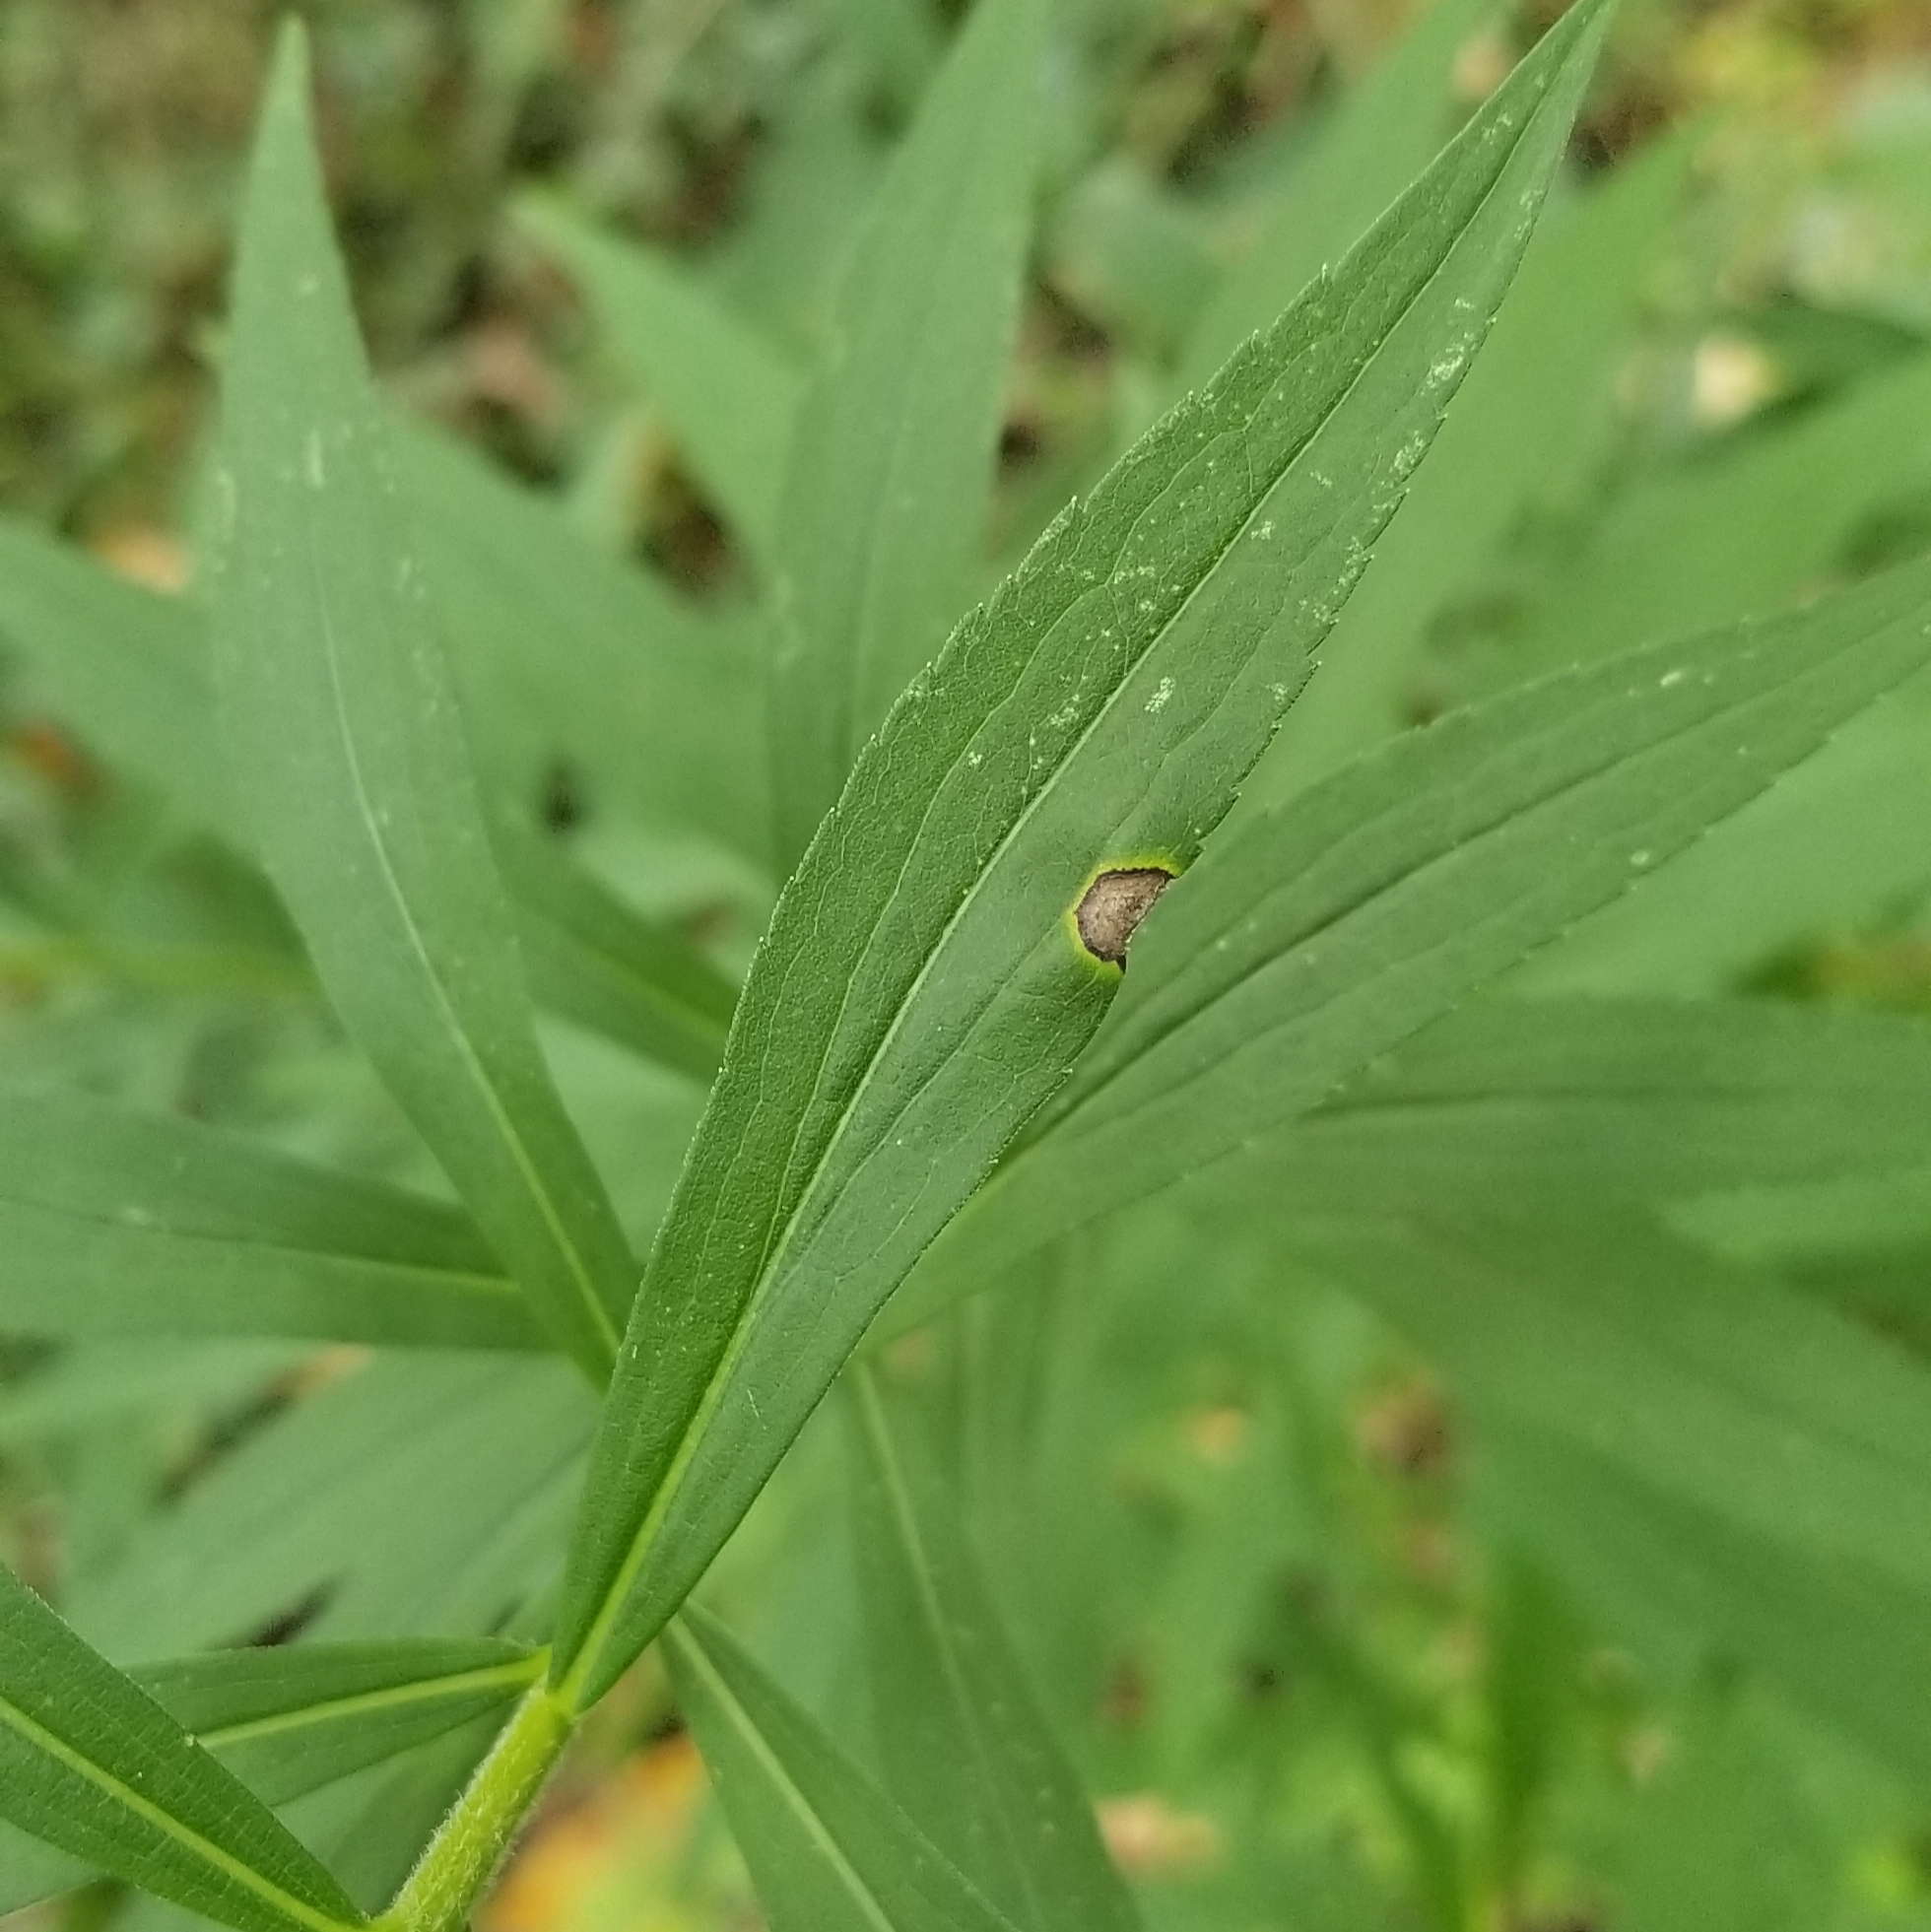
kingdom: Animalia
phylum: Arthropoda
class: Insecta
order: Diptera
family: Cecidomyiidae
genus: Asteromyia
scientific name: Asteromyia carbonifera
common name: Carbonifera goldenrod gall midge
